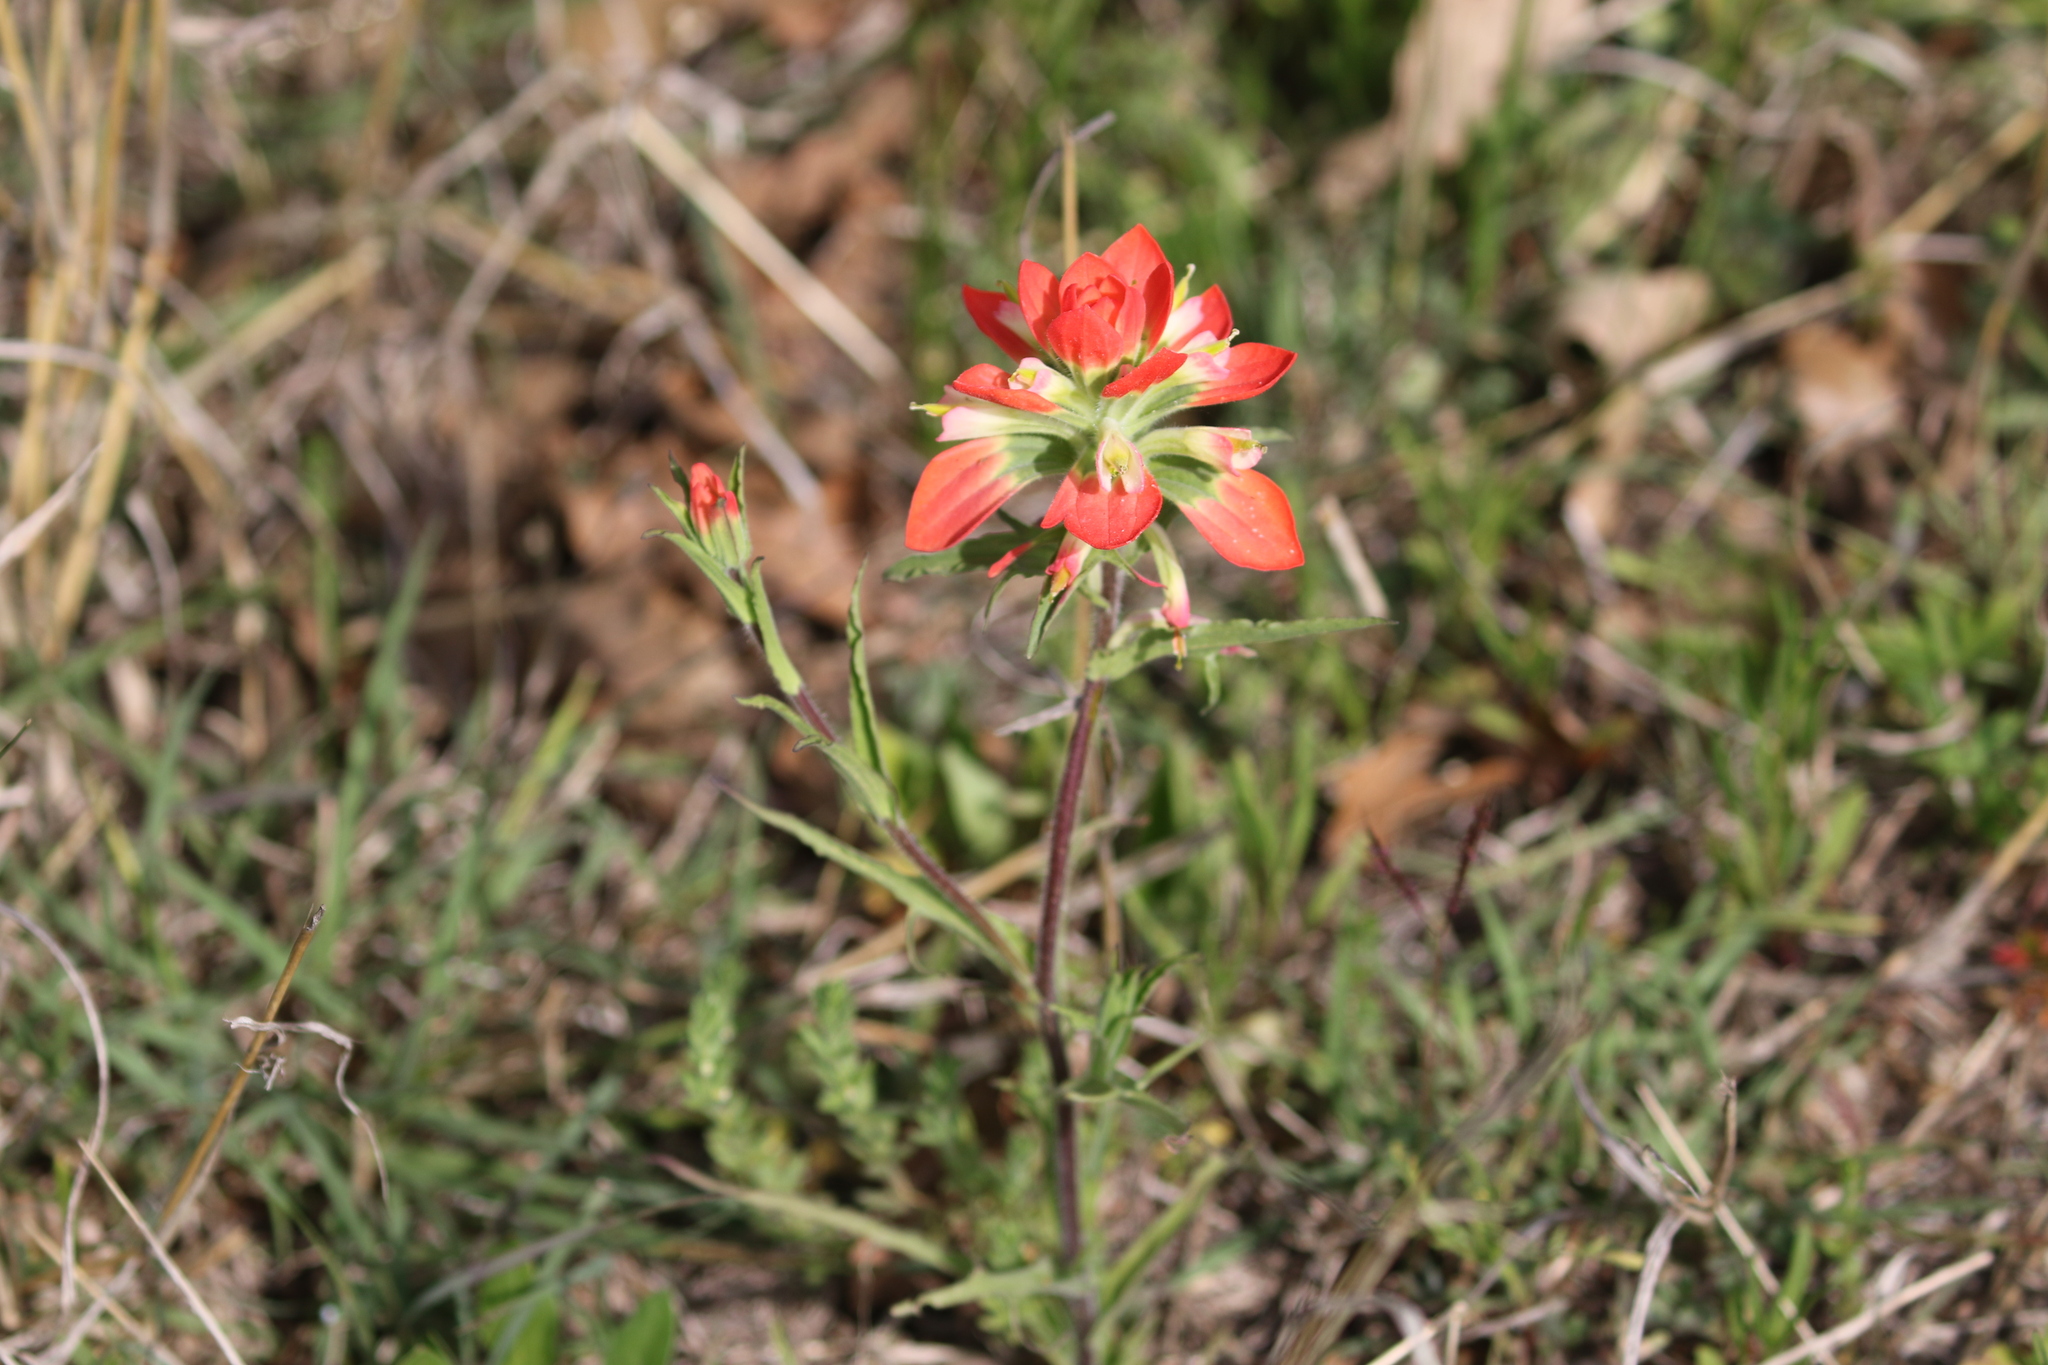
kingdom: Plantae
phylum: Tracheophyta
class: Magnoliopsida
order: Lamiales
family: Orobanchaceae
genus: Castilleja
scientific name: Castilleja indivisa
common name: Texas paintbrush
